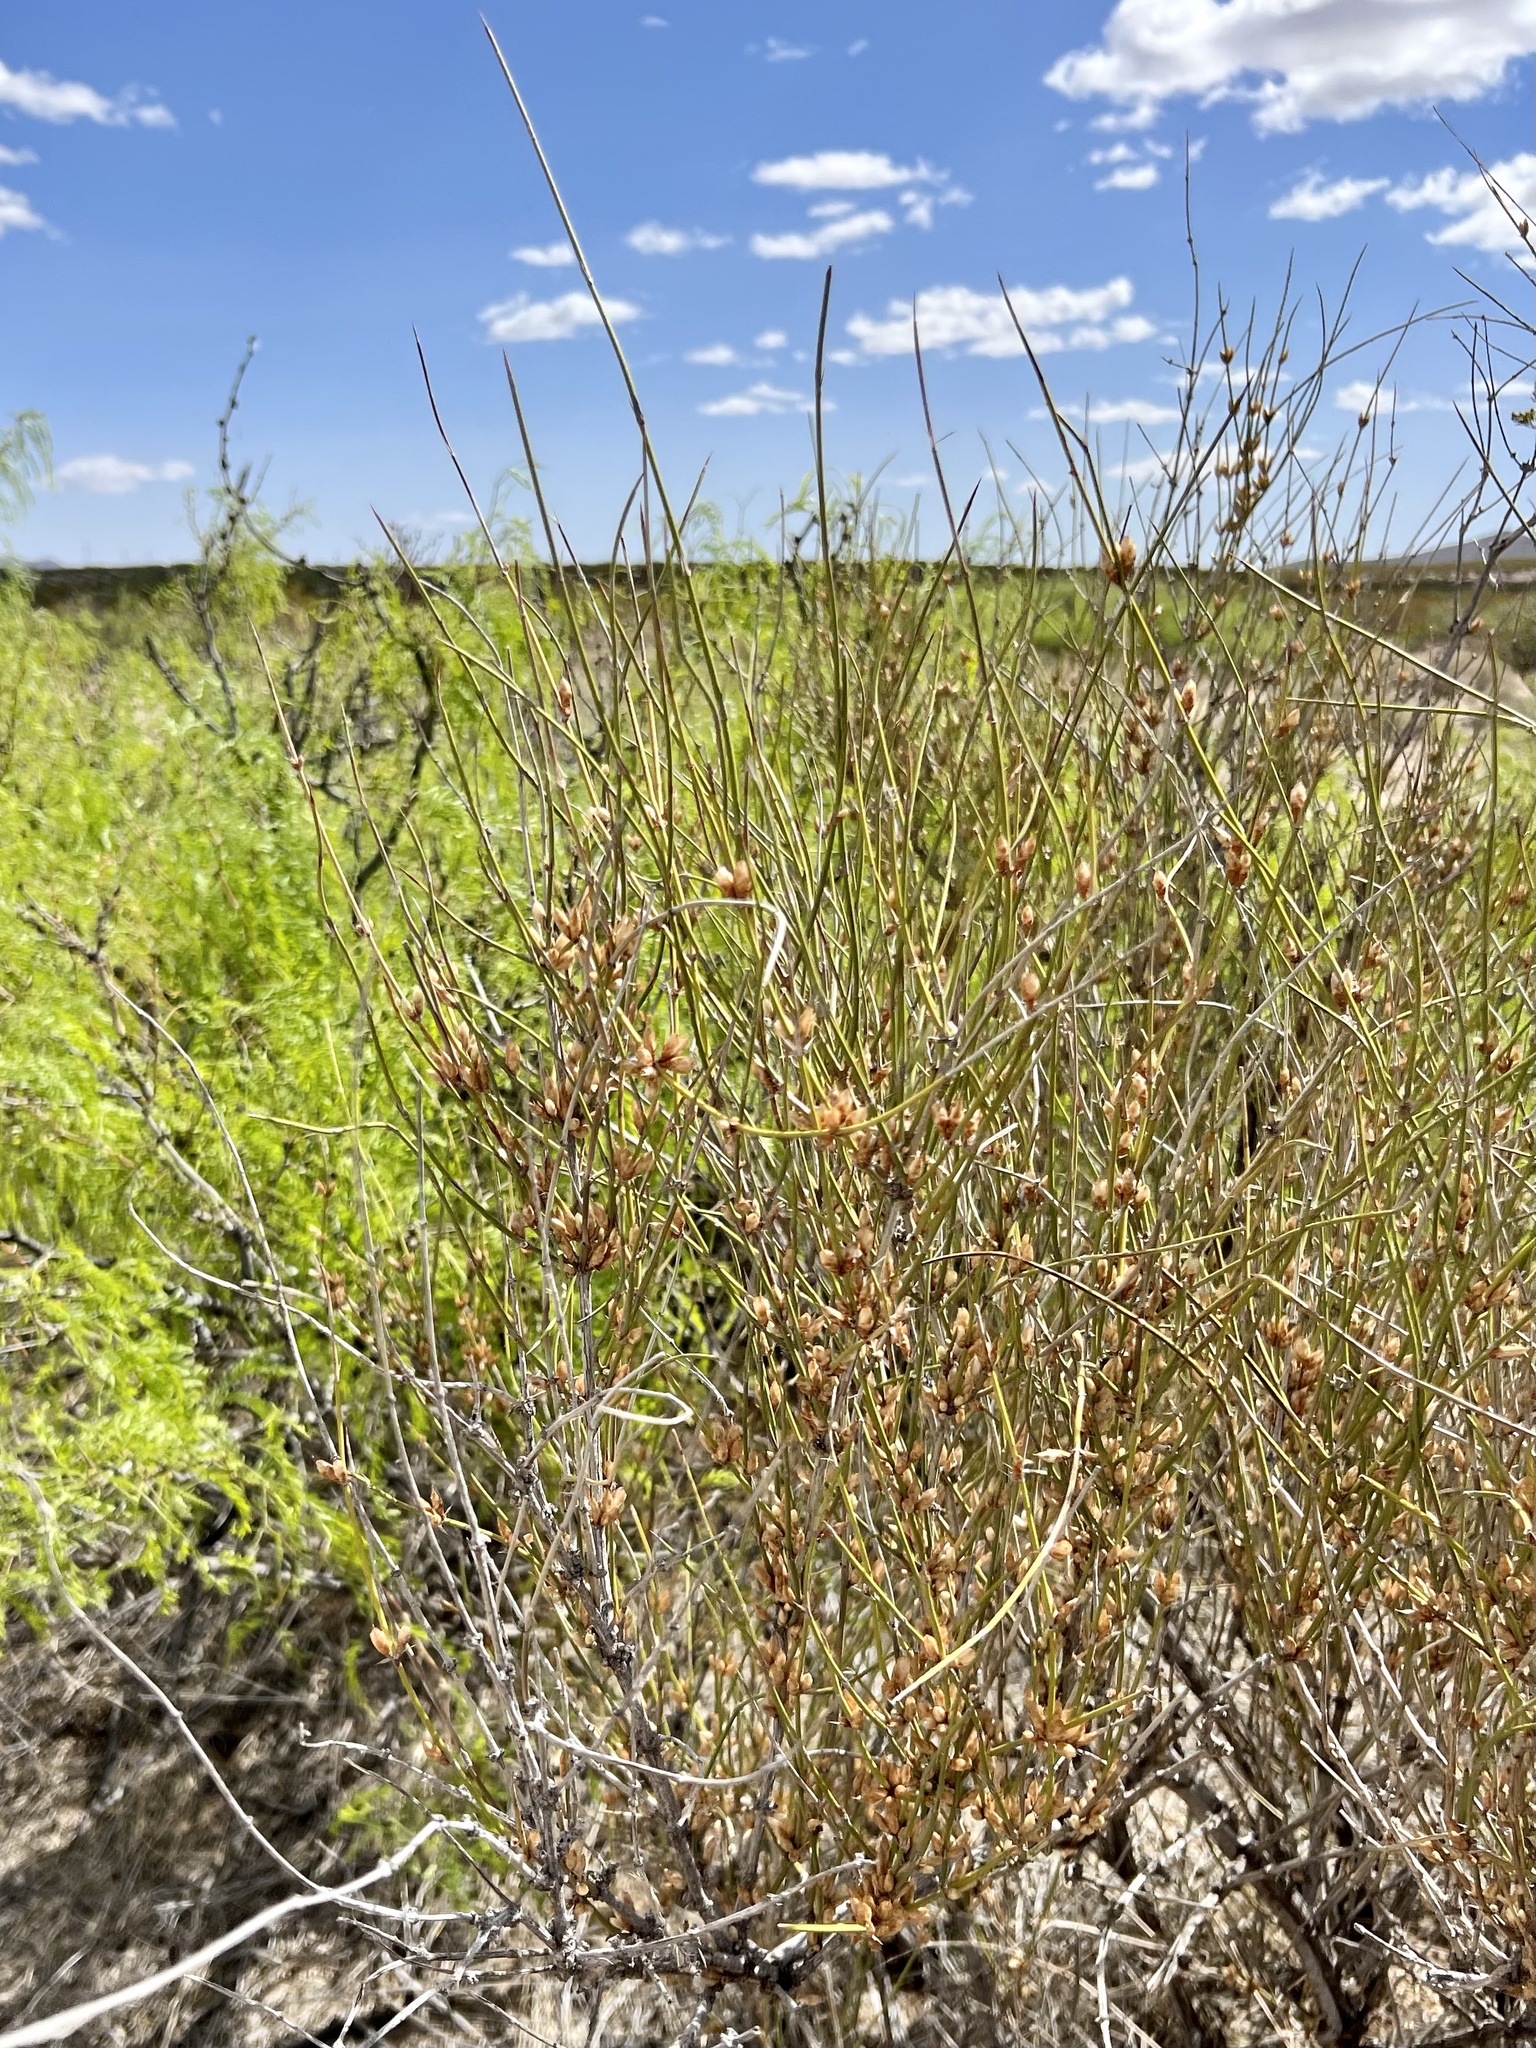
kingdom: Plantae
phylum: Tracheophyta
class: Gnetopsida
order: Ephedrales
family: Ephedraceae
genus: Ephedra
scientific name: Ephedra trifurca
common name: Mexican-tea
